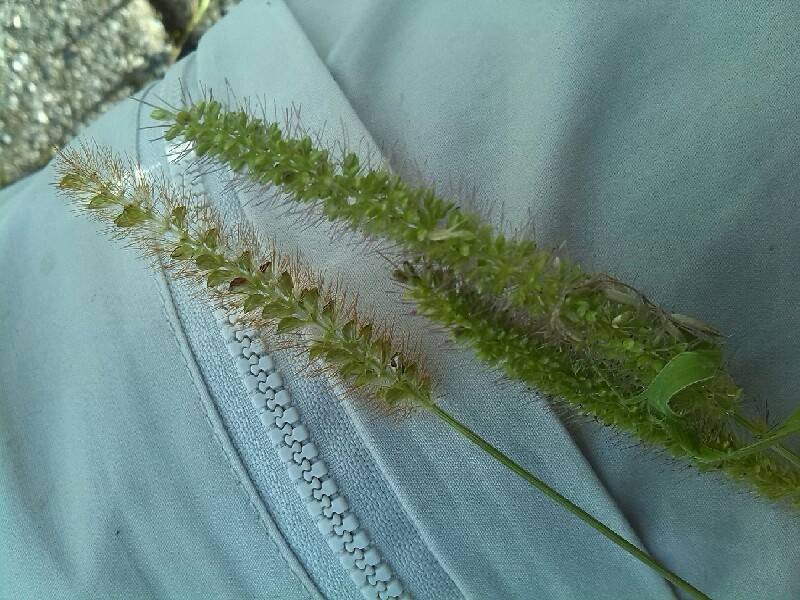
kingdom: Plantae
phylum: Tracheophyta
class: Liliopsida
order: Poales
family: Poaceae
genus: Setaria
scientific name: Setaria pumila
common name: Yellow bristle-grass
